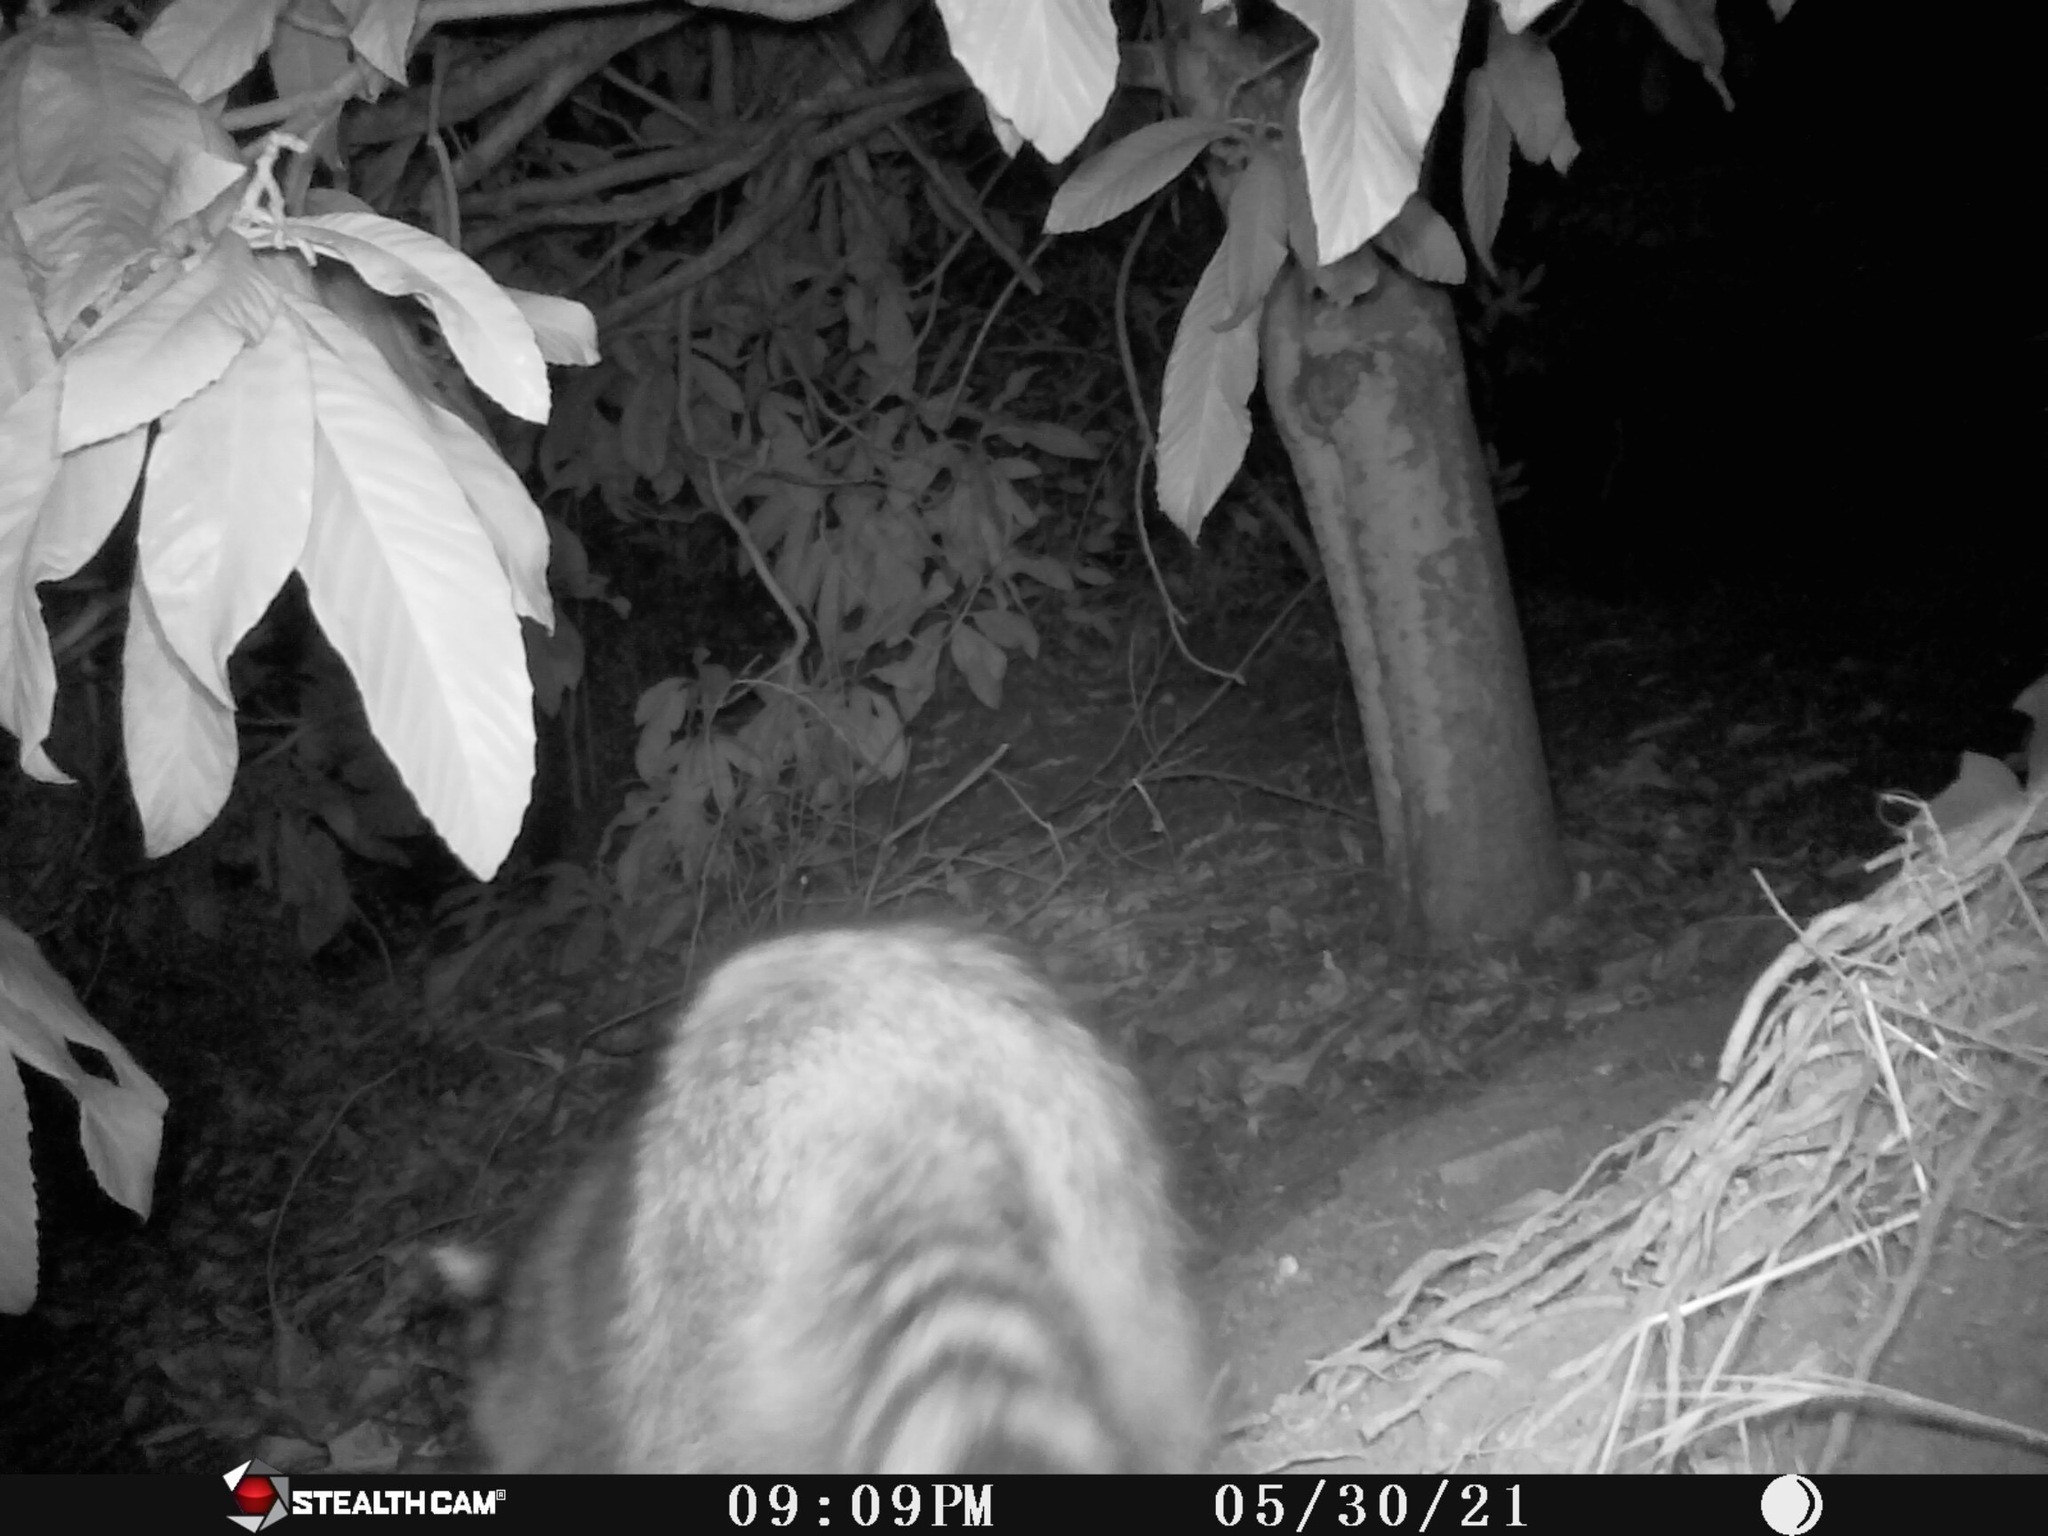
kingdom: Animalia
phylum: Chordata
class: Mammalia
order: Carnivora
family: Procyonidae
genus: Procyon
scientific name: Procyon lotor
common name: Raccoon
